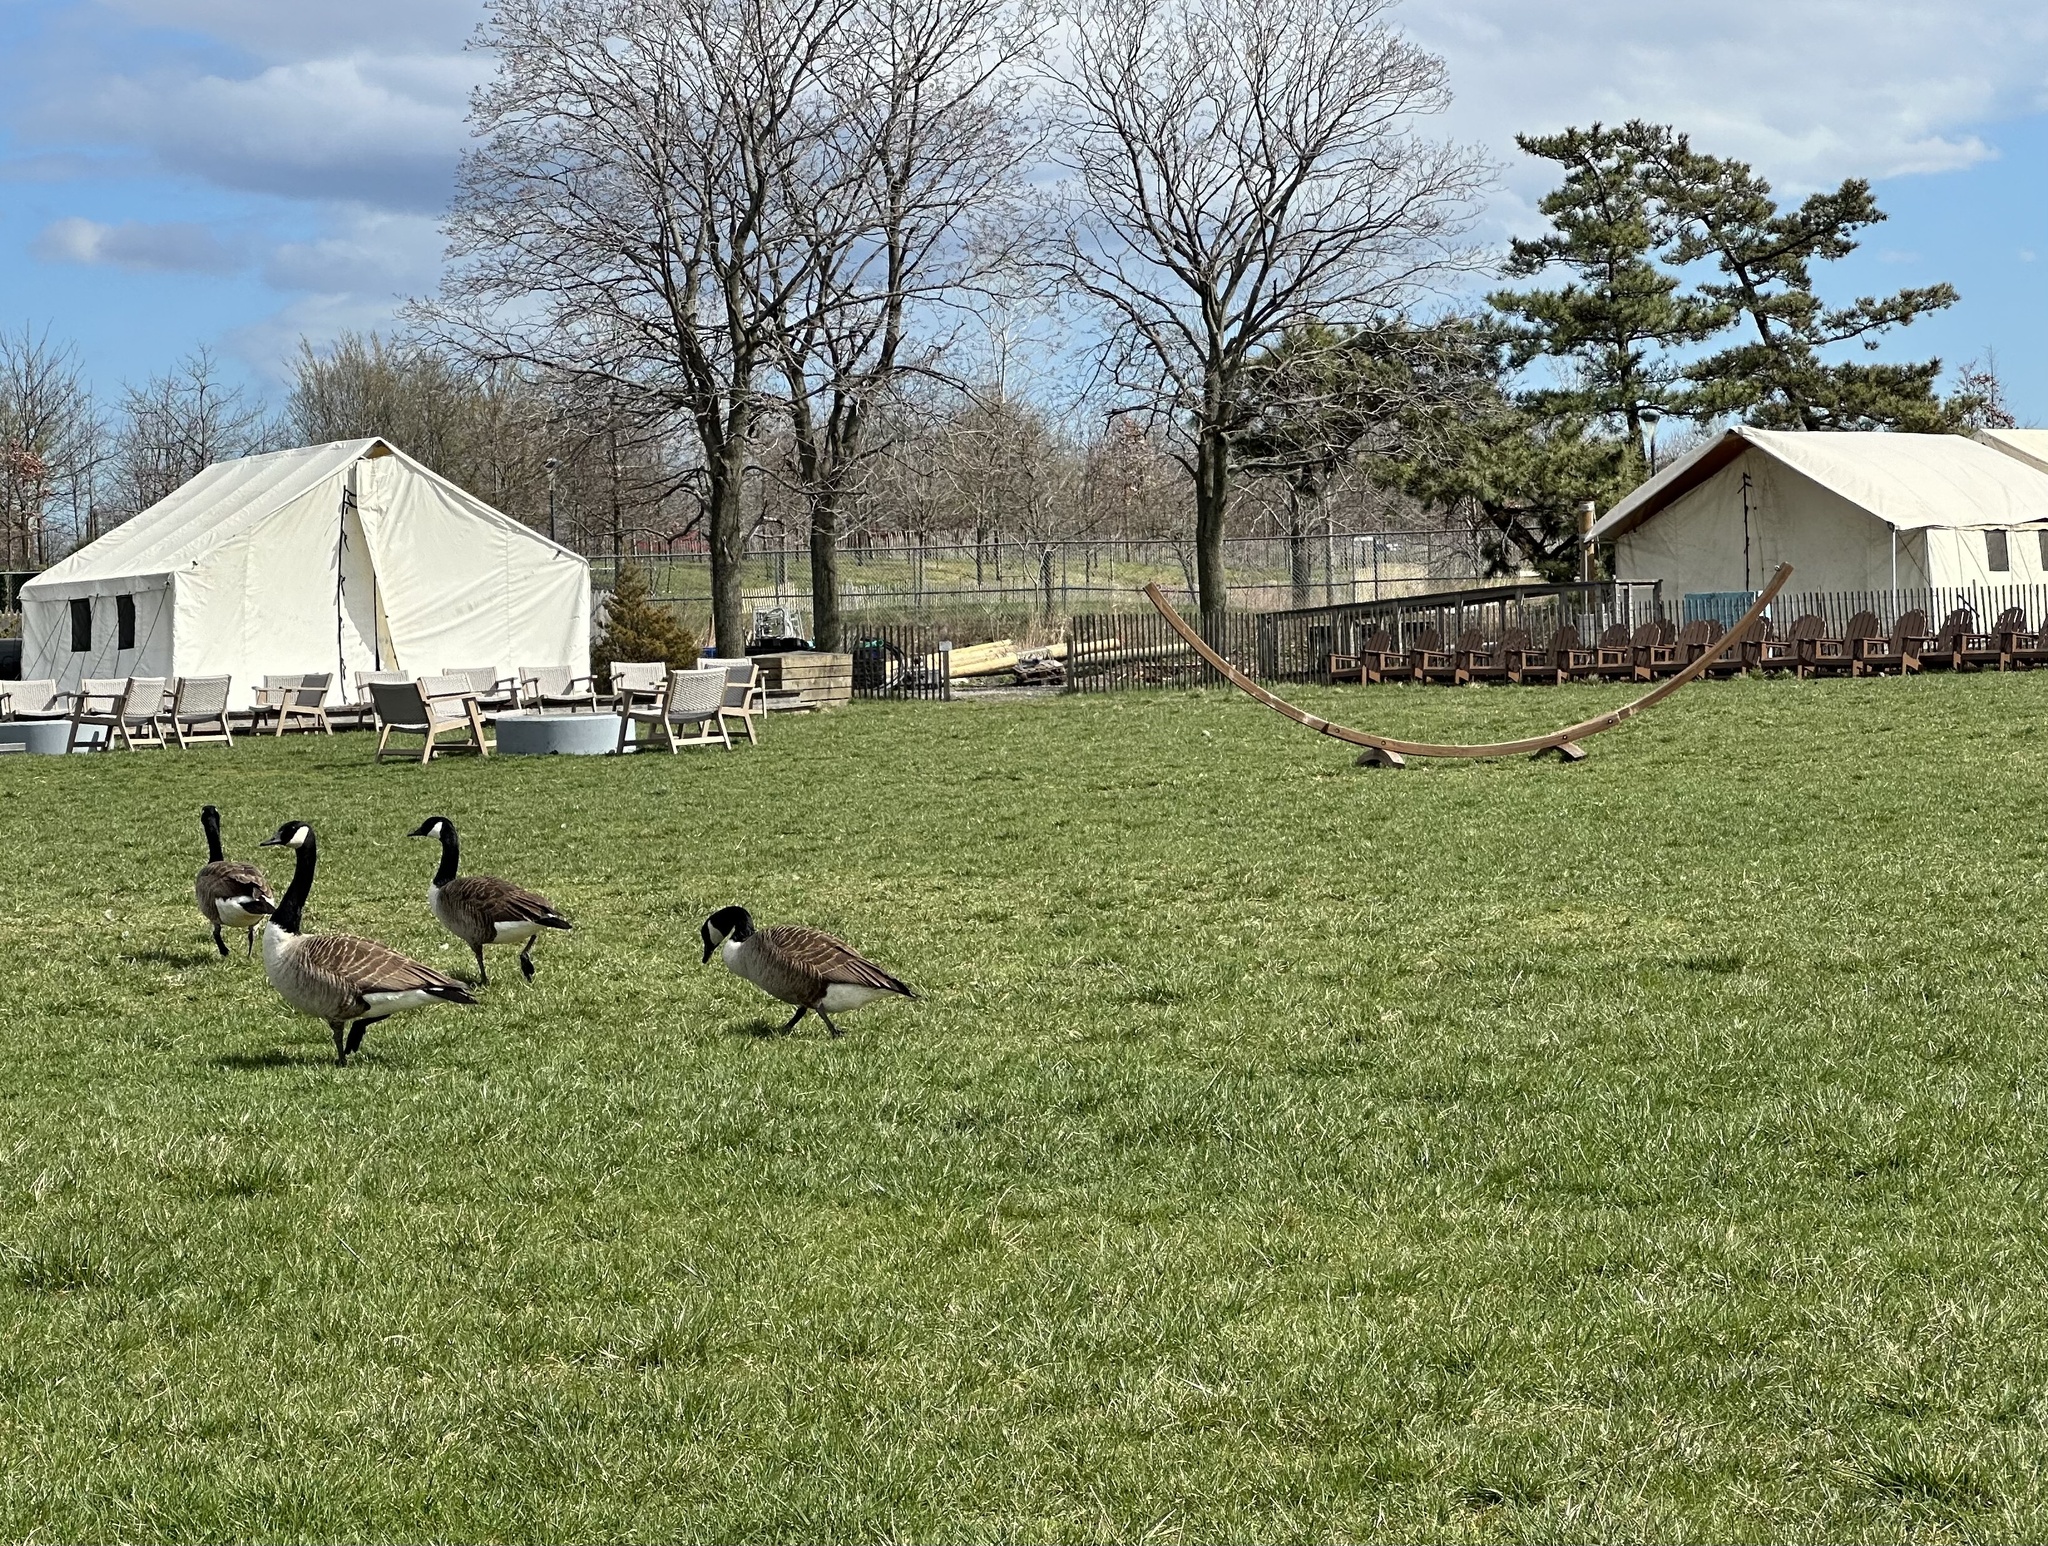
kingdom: Animalia
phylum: Chordata
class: Aves
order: Anseriformes
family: Anatidae
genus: Branta
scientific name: Branta canadensis
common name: Canada goose
